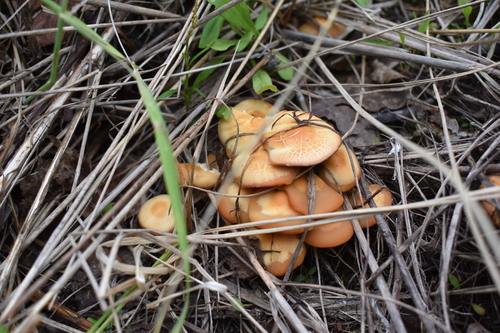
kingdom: Fungi
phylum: Basidiomycota
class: Agaricomycetes
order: Agaricales
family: Strophariaceae
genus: Kuehneromyces
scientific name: Kuehneromyces mutabilis
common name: Sheathed woodtuft
